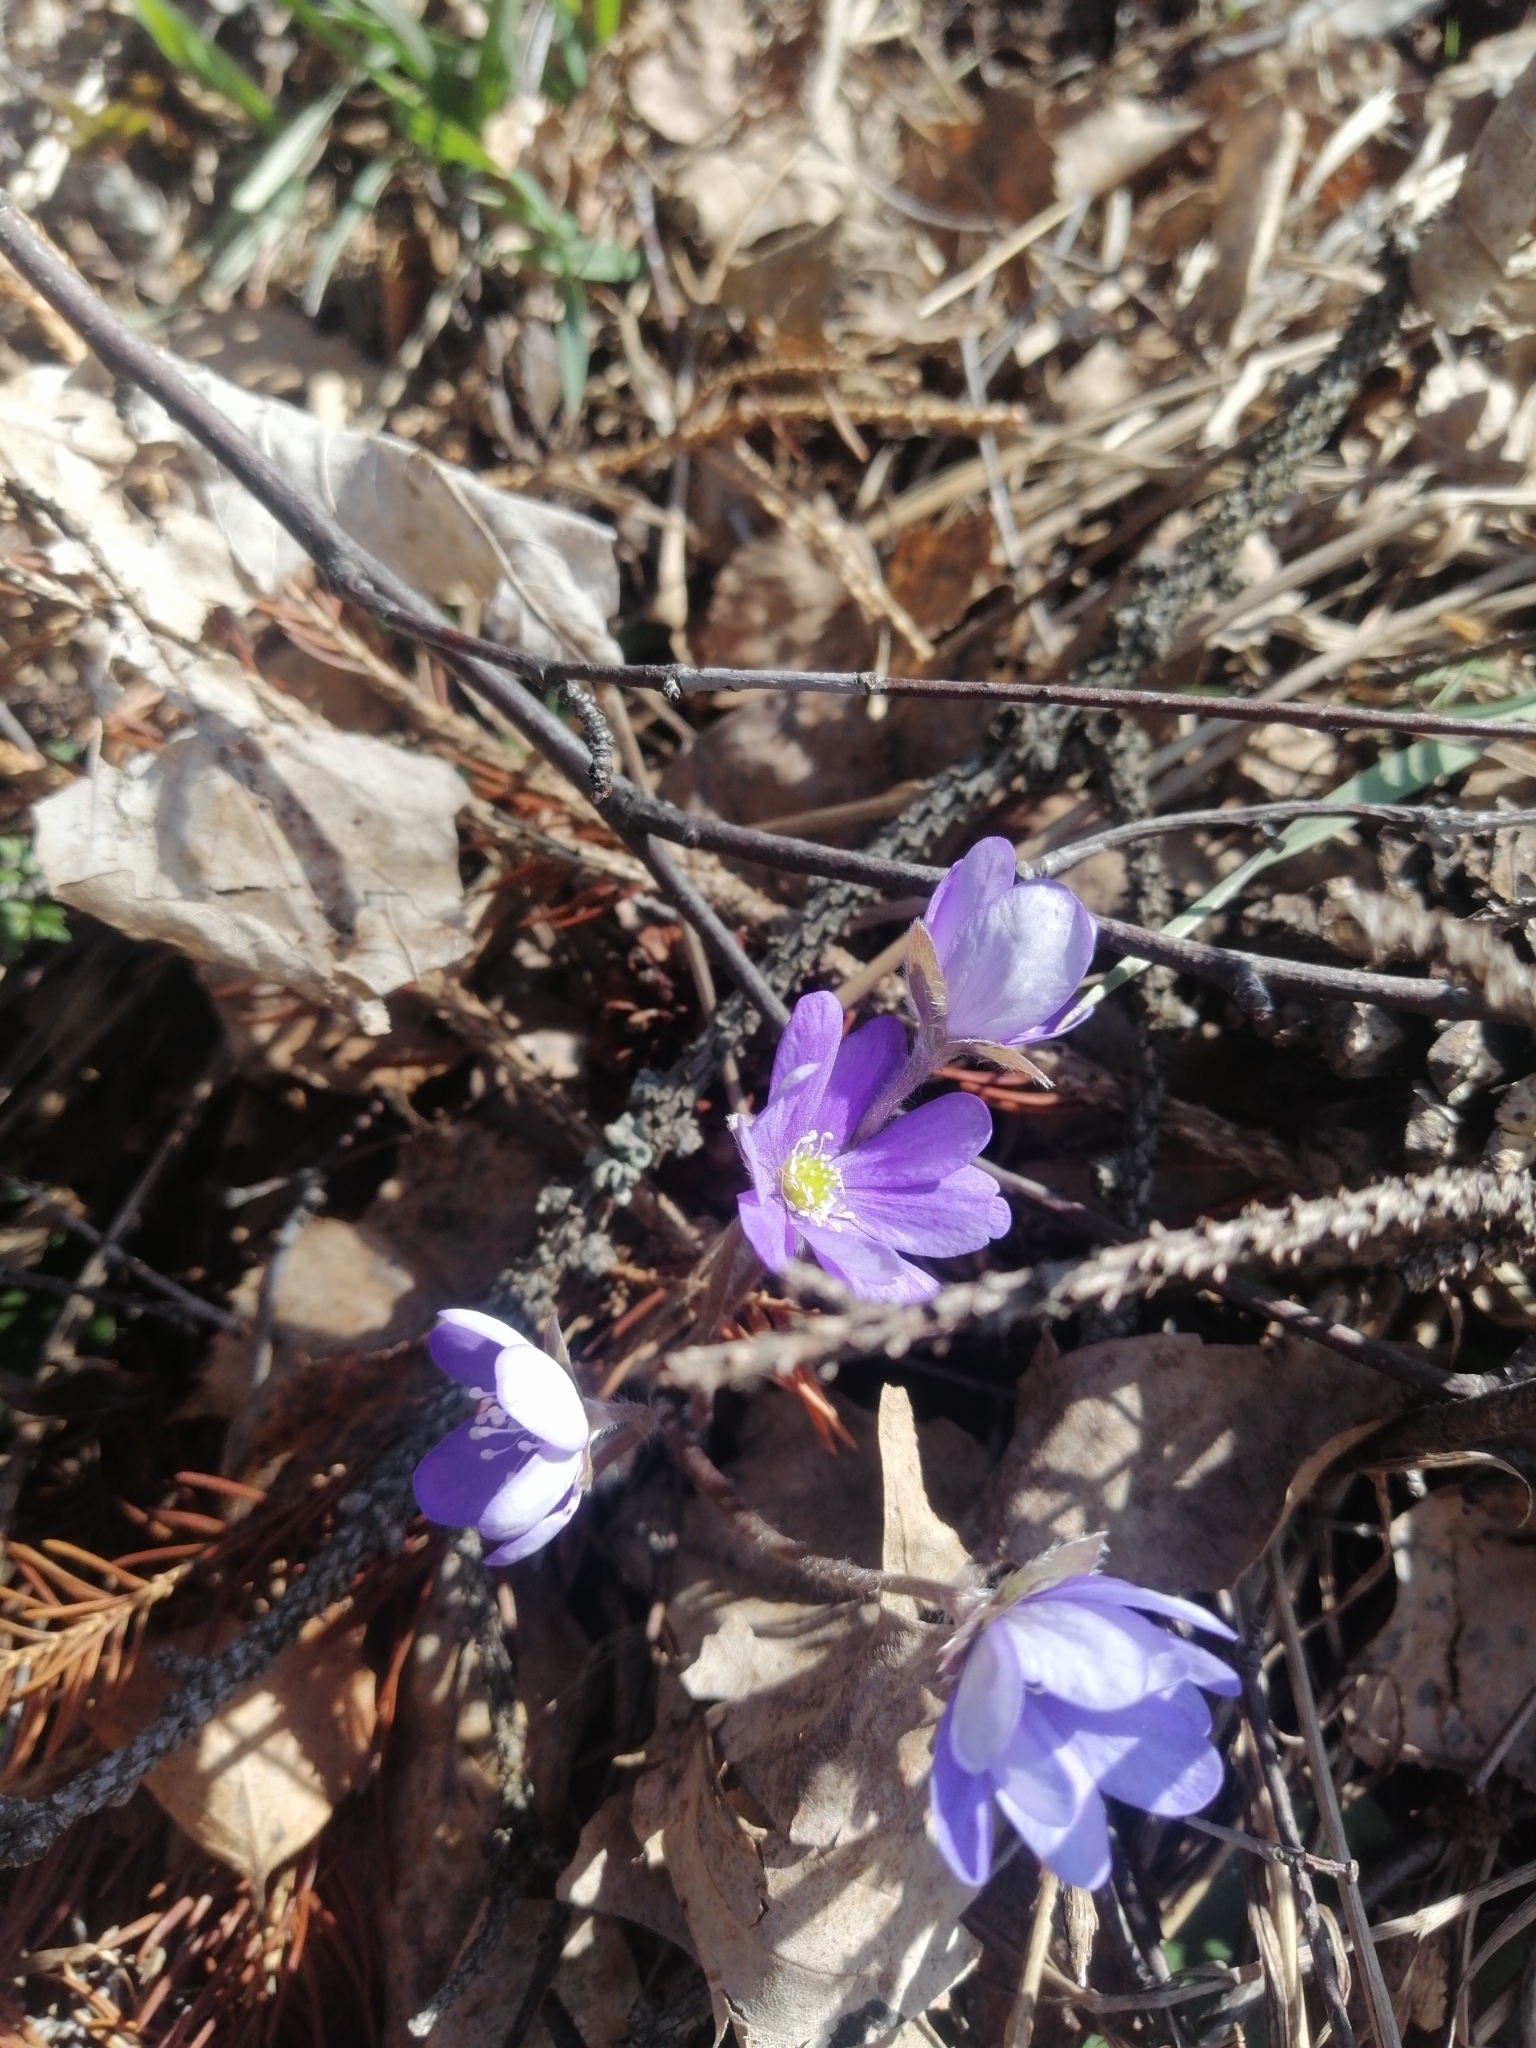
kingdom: Plantae
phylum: Tracheophyta
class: Magnoliopsida
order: Ranunculales
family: Ranunculaceae
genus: Hepatica
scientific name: Hepatica nobilis
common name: Liverleaf
